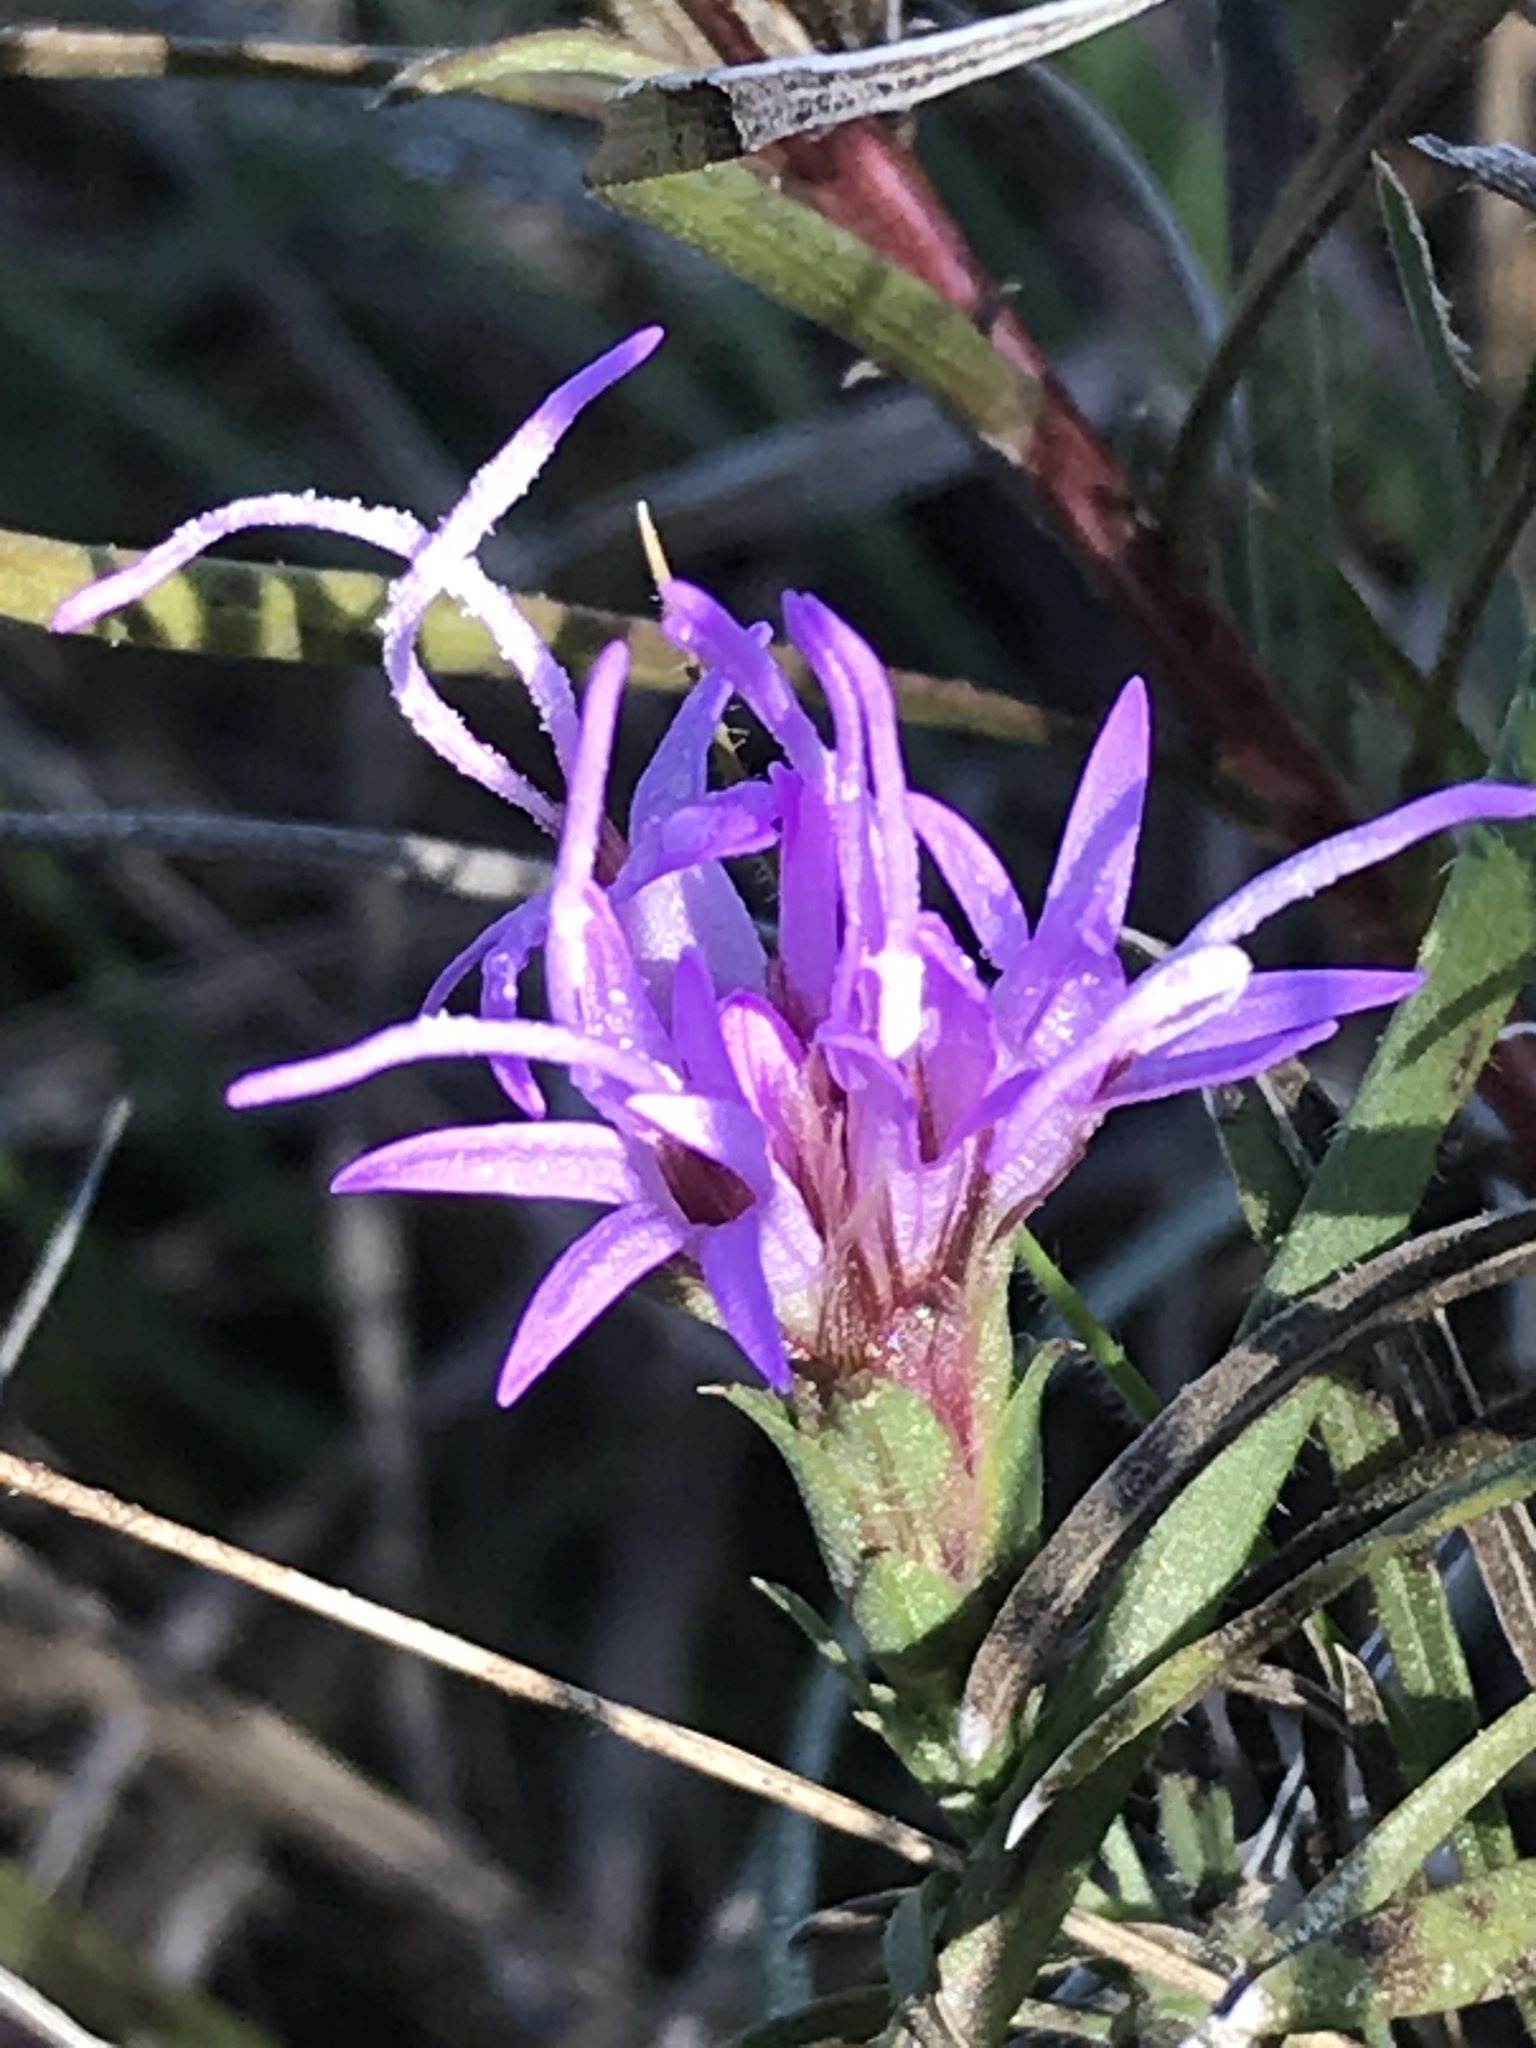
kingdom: Plantae
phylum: Tracheophyta
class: Magnoliopsida
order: Asterales
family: Asteraceae
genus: Liatris
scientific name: Liatris punctata
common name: Dotted gayfeather
